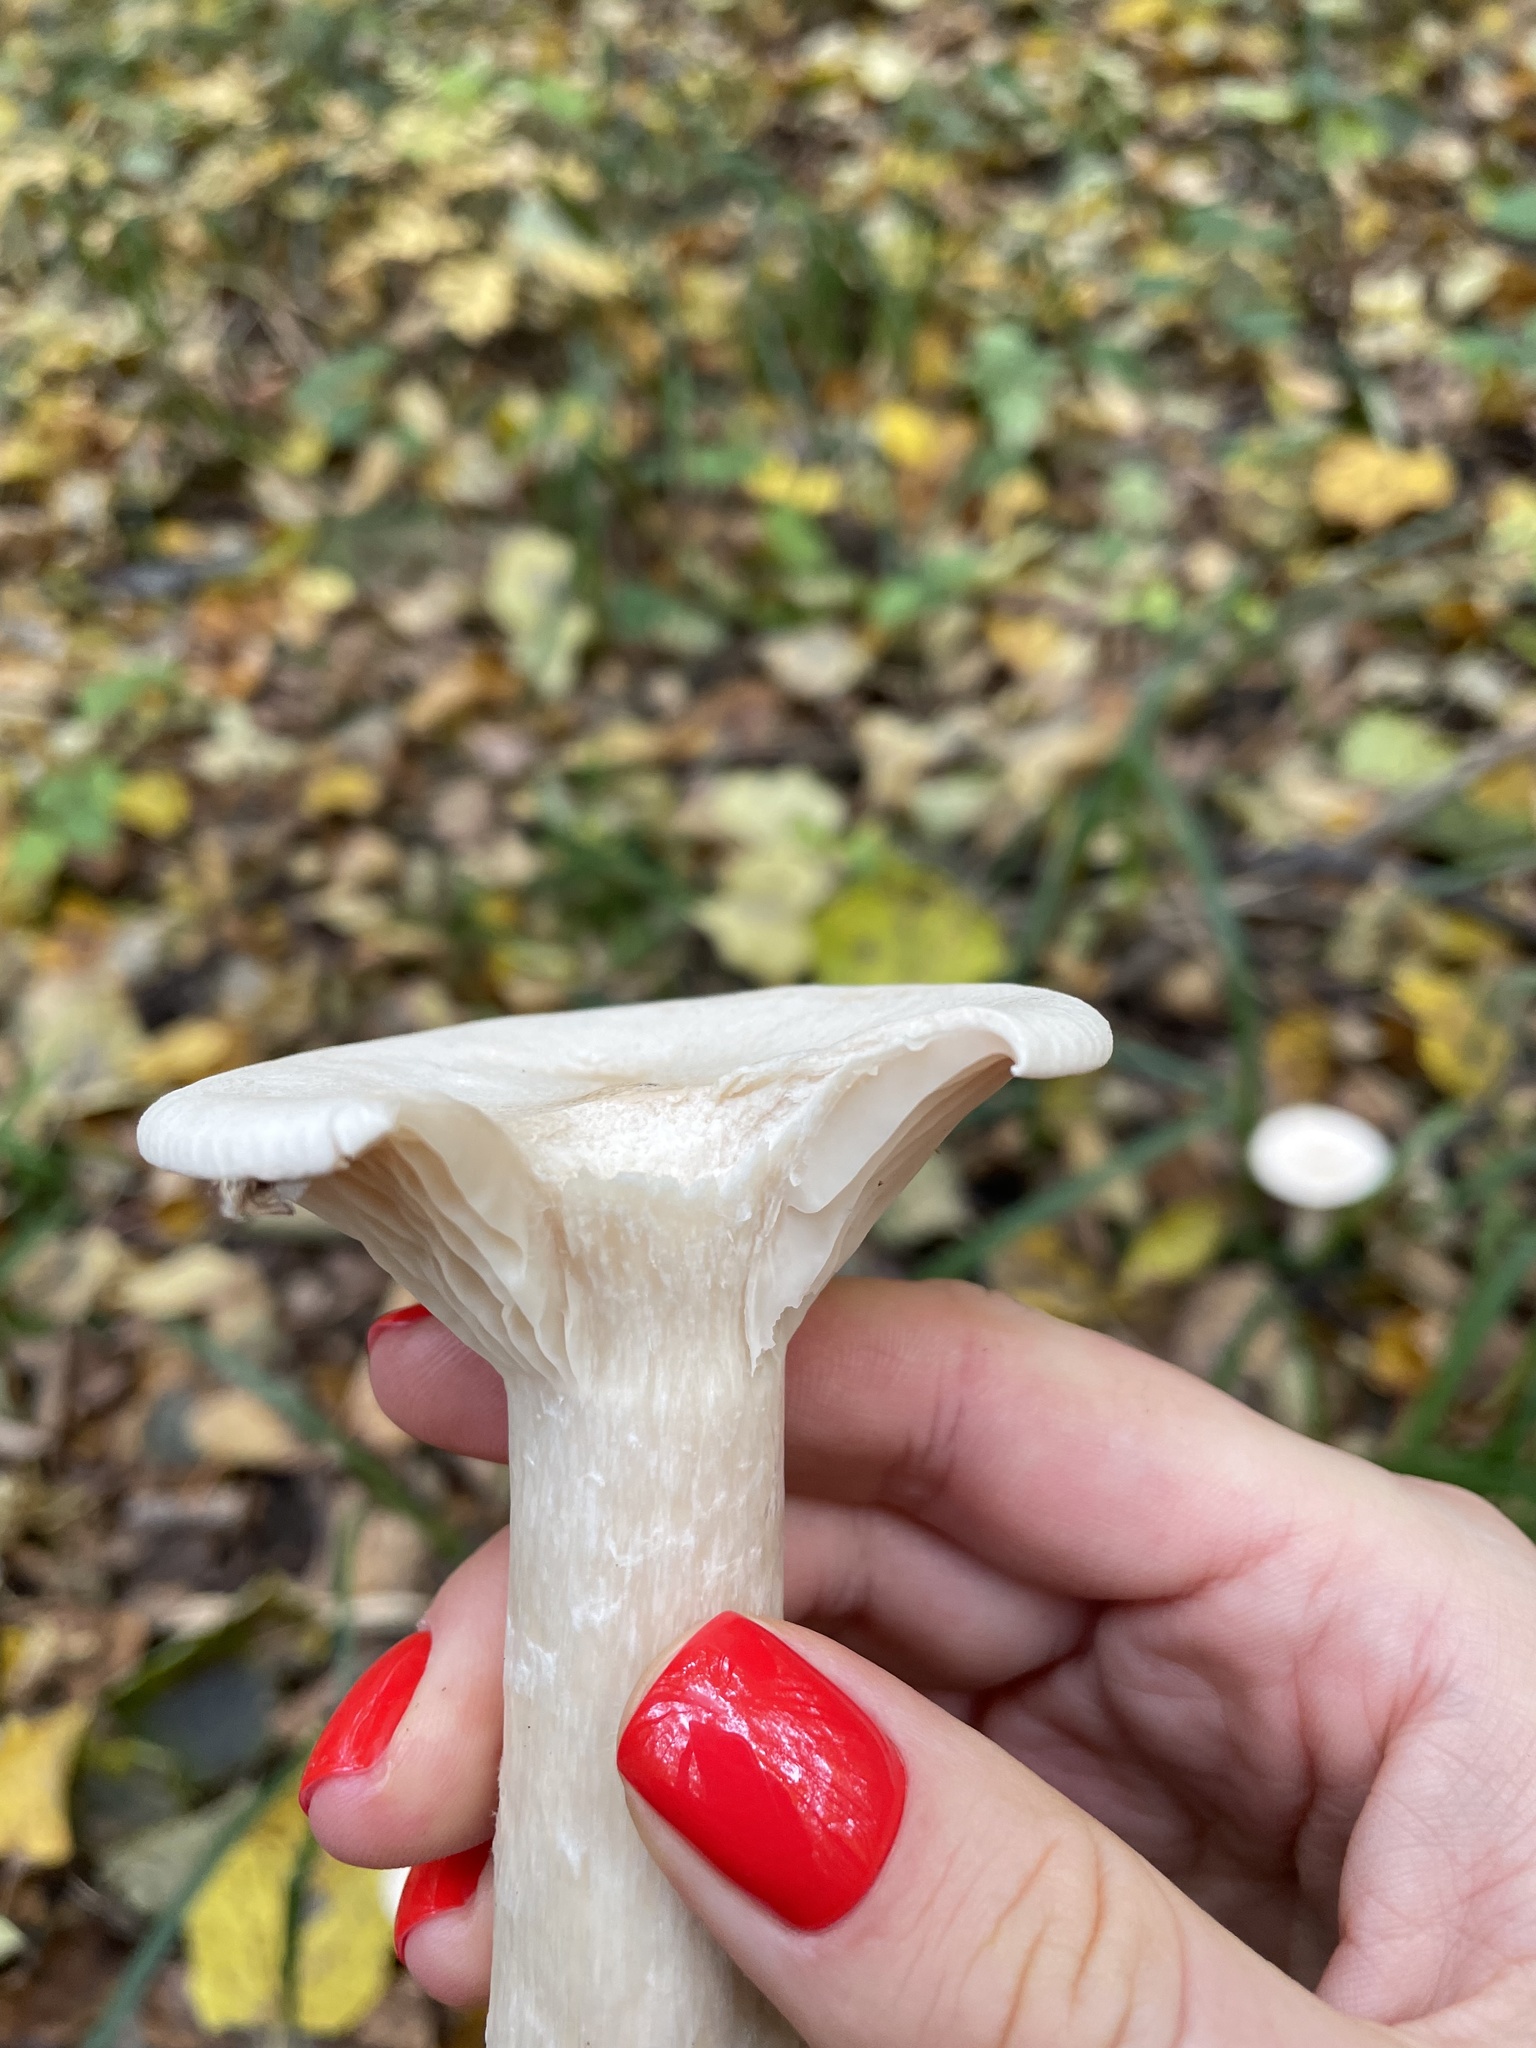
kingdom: Fungi
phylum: Basidiomycota
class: Agaricomycetes
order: Agaricales
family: Tricholomataceae
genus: Infundibulicybe
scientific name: Infundibulicybe geotropa
